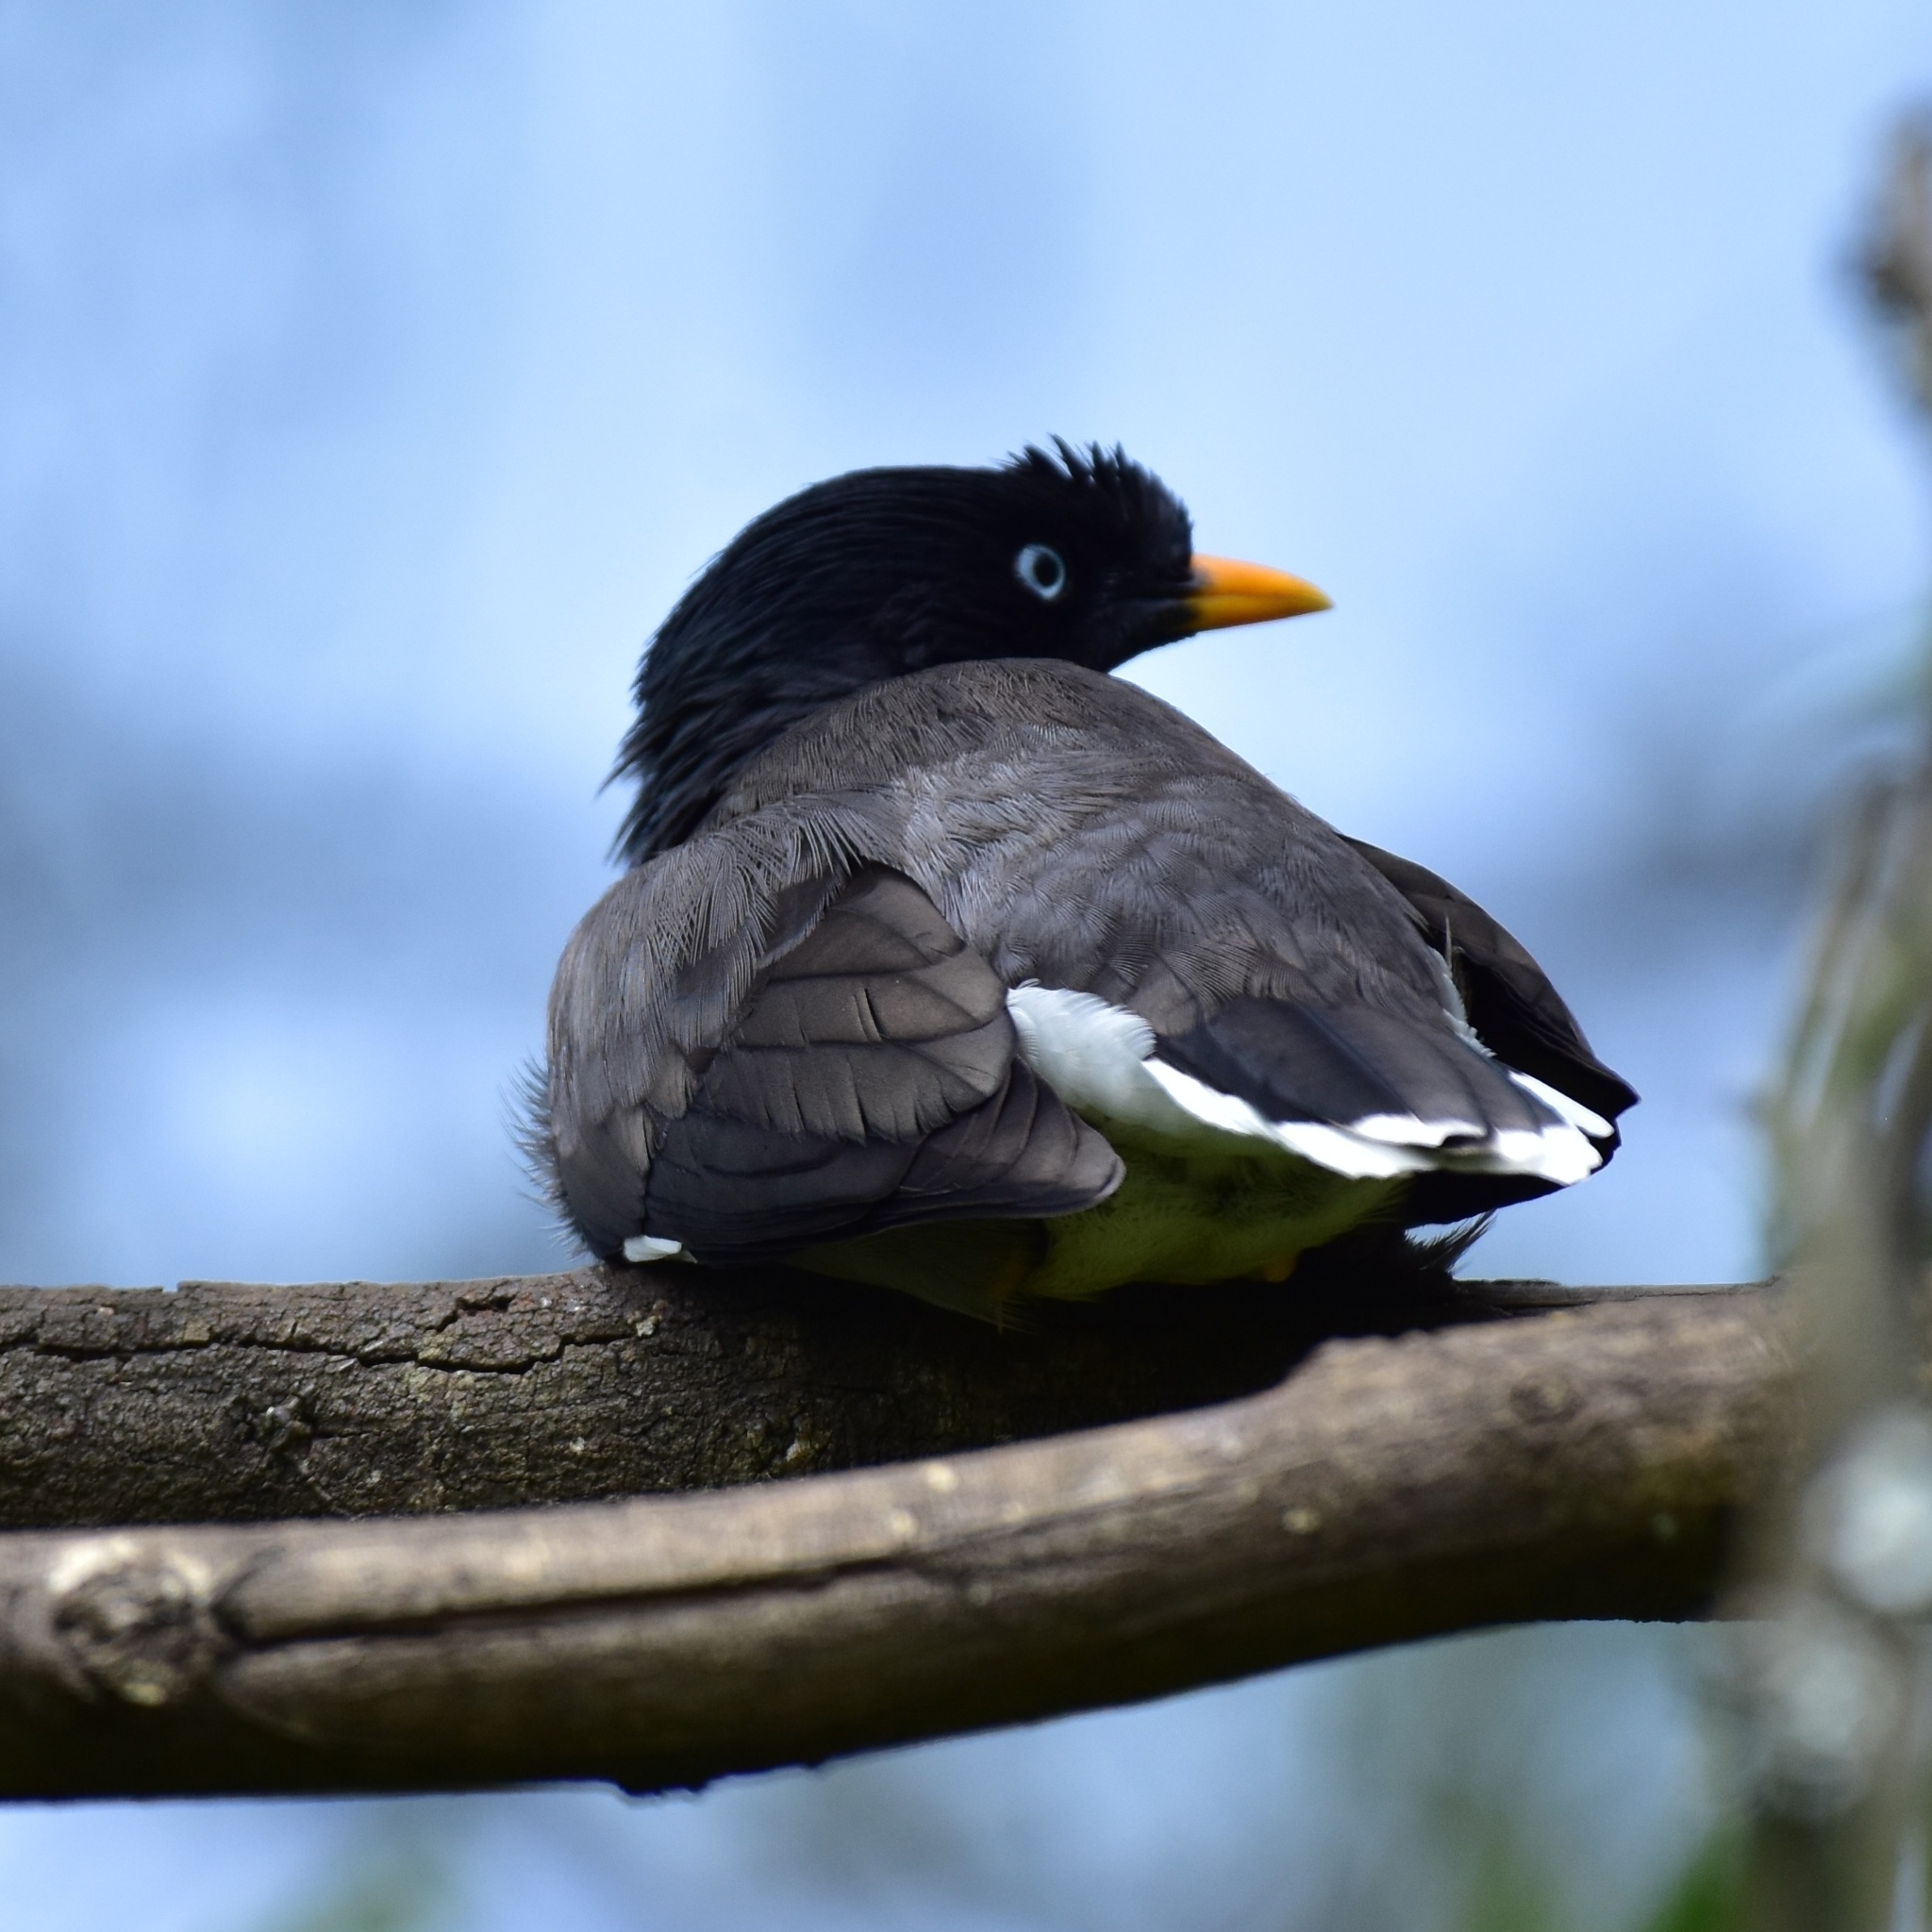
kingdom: Animalia
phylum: Chordata
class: Aves
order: Passeriformes
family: Sturnidae
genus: Acridotheres
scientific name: Acridotheres fuscus
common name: Jungle myna
